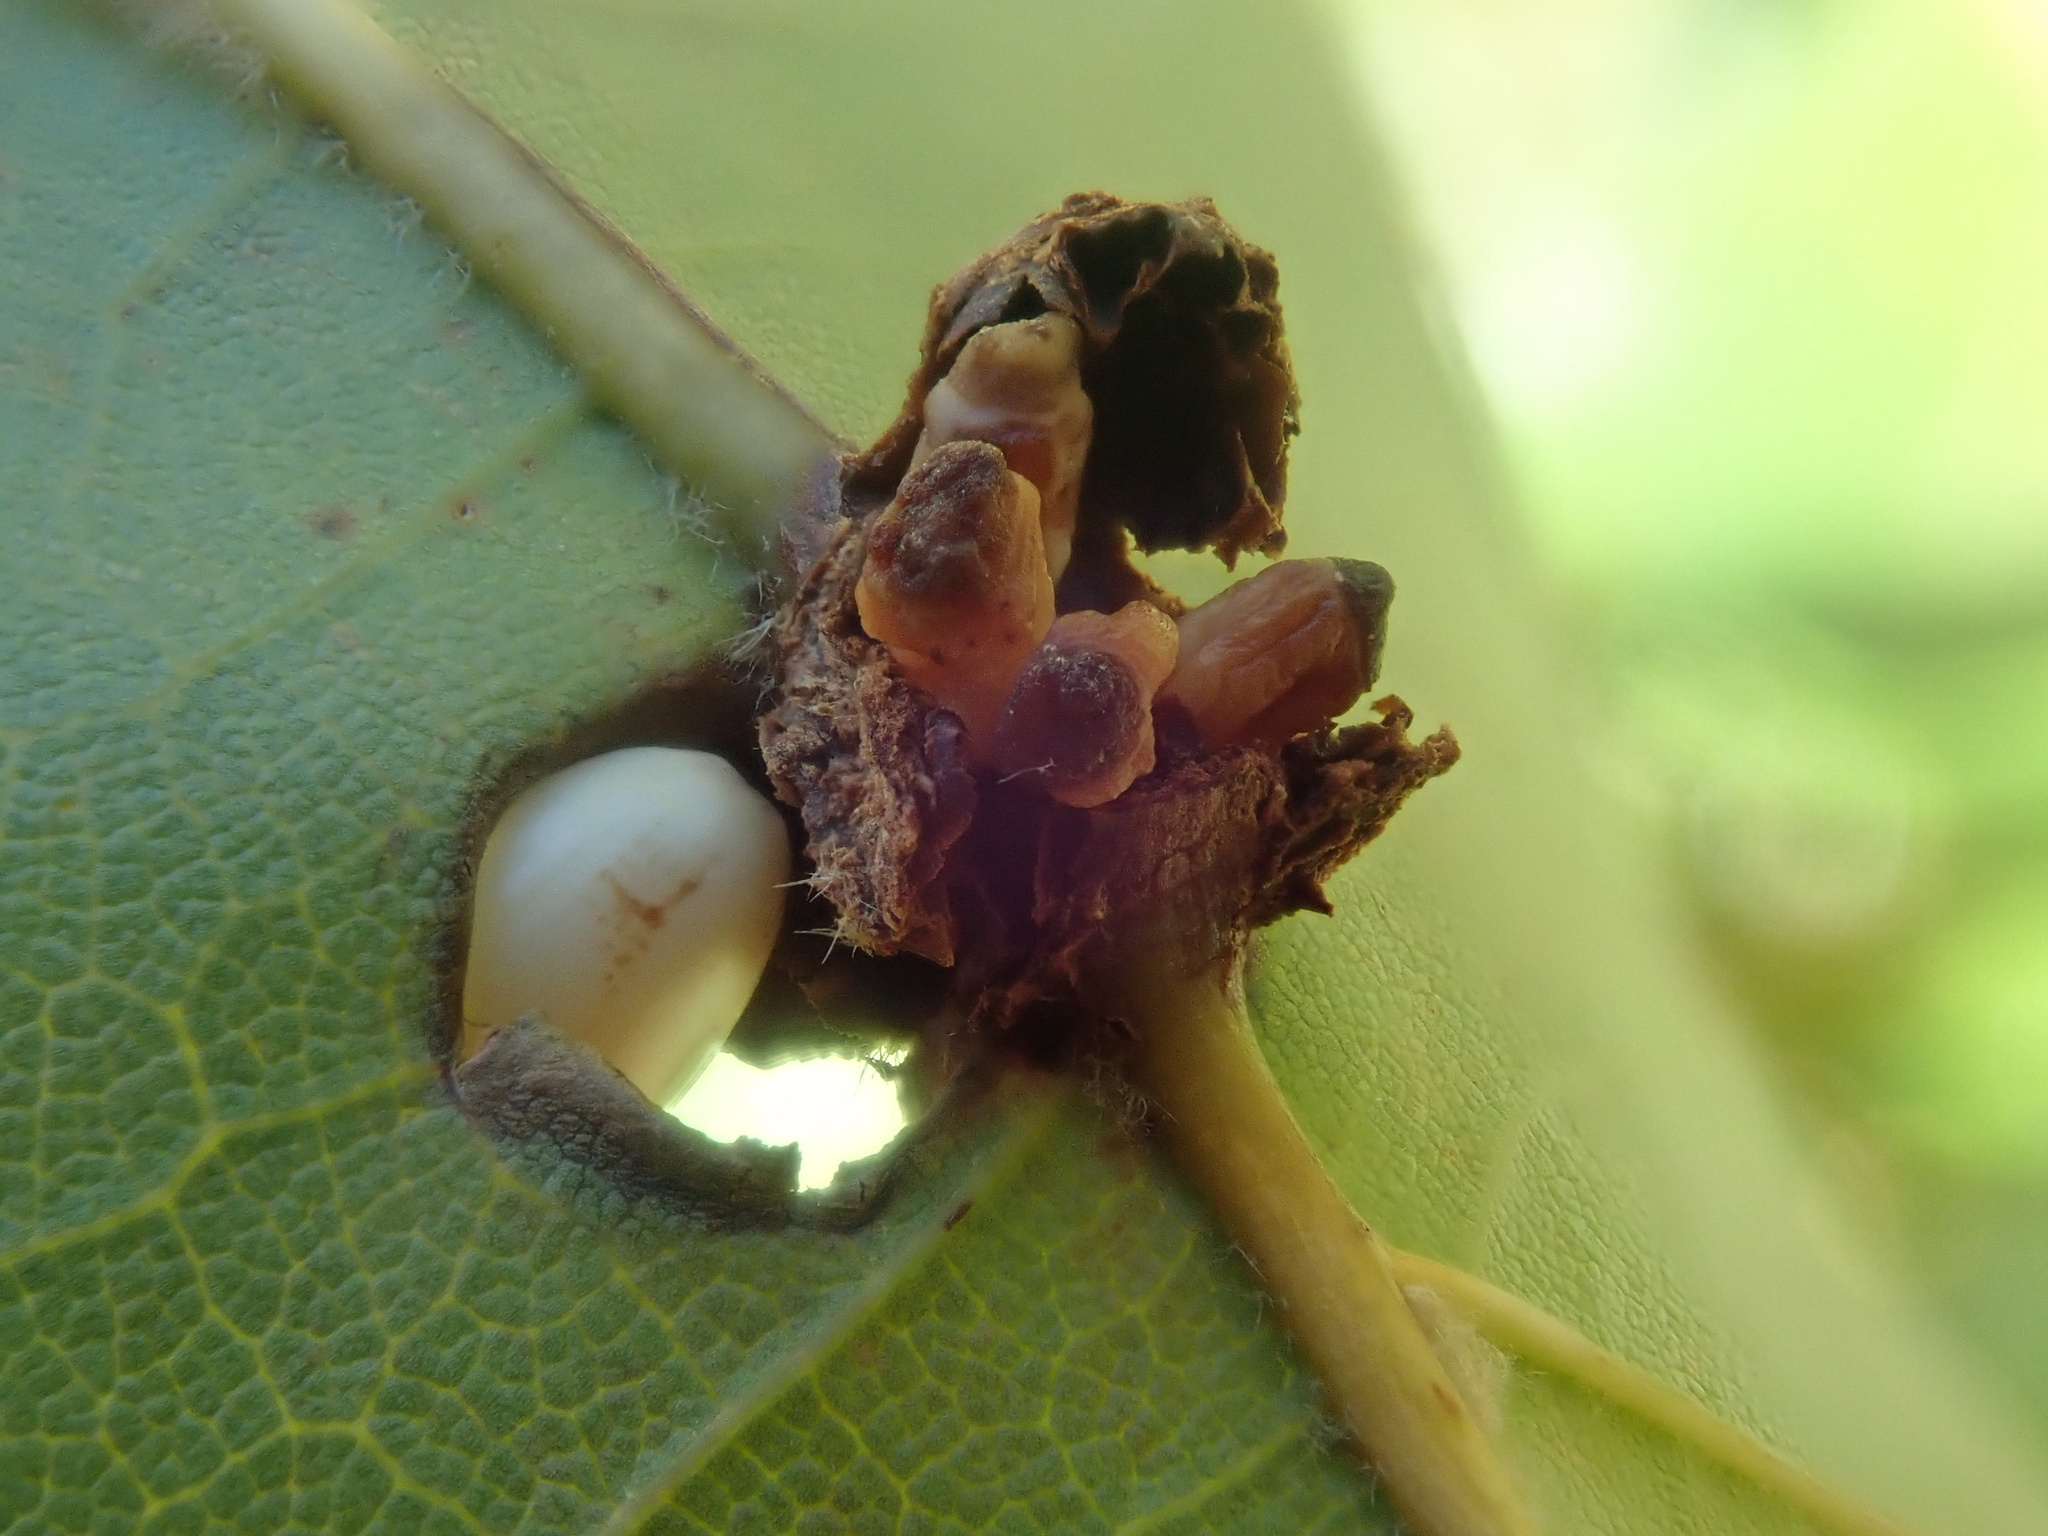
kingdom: Animalia
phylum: Arthropoda
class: Insecta
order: Hymenoptera
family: Cynipidae
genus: Kokkocynips
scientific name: Kokkocynips decidua
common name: Oak wheat gall
